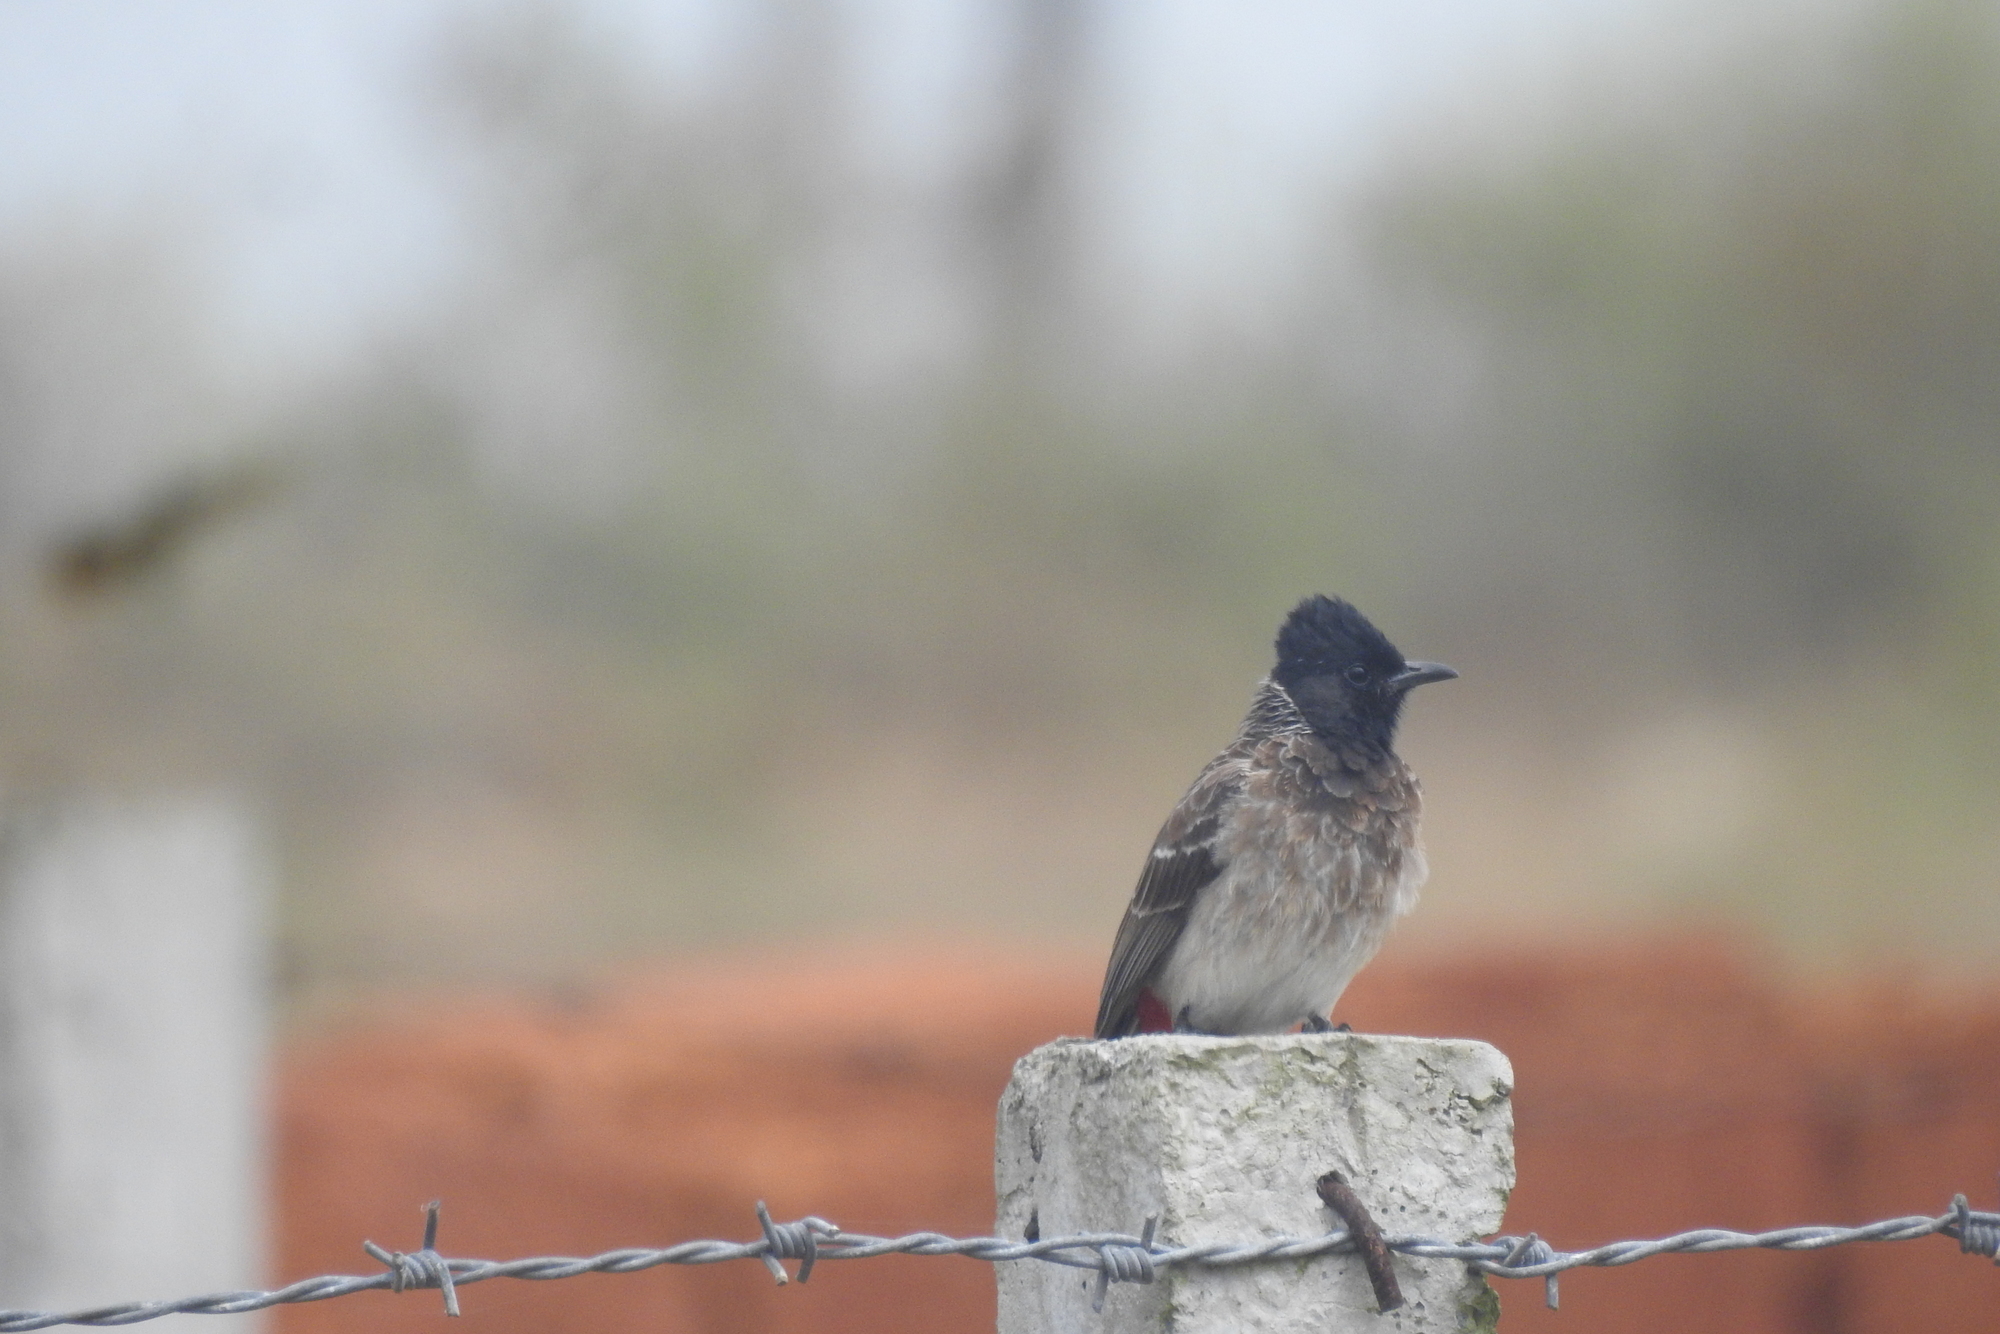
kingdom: Animalia
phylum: Chordata
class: Aves
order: Passeriformes
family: Pycnonotidae
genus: Pycnonotus
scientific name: Pycnonotus cafer
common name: Red-vented bulbul
